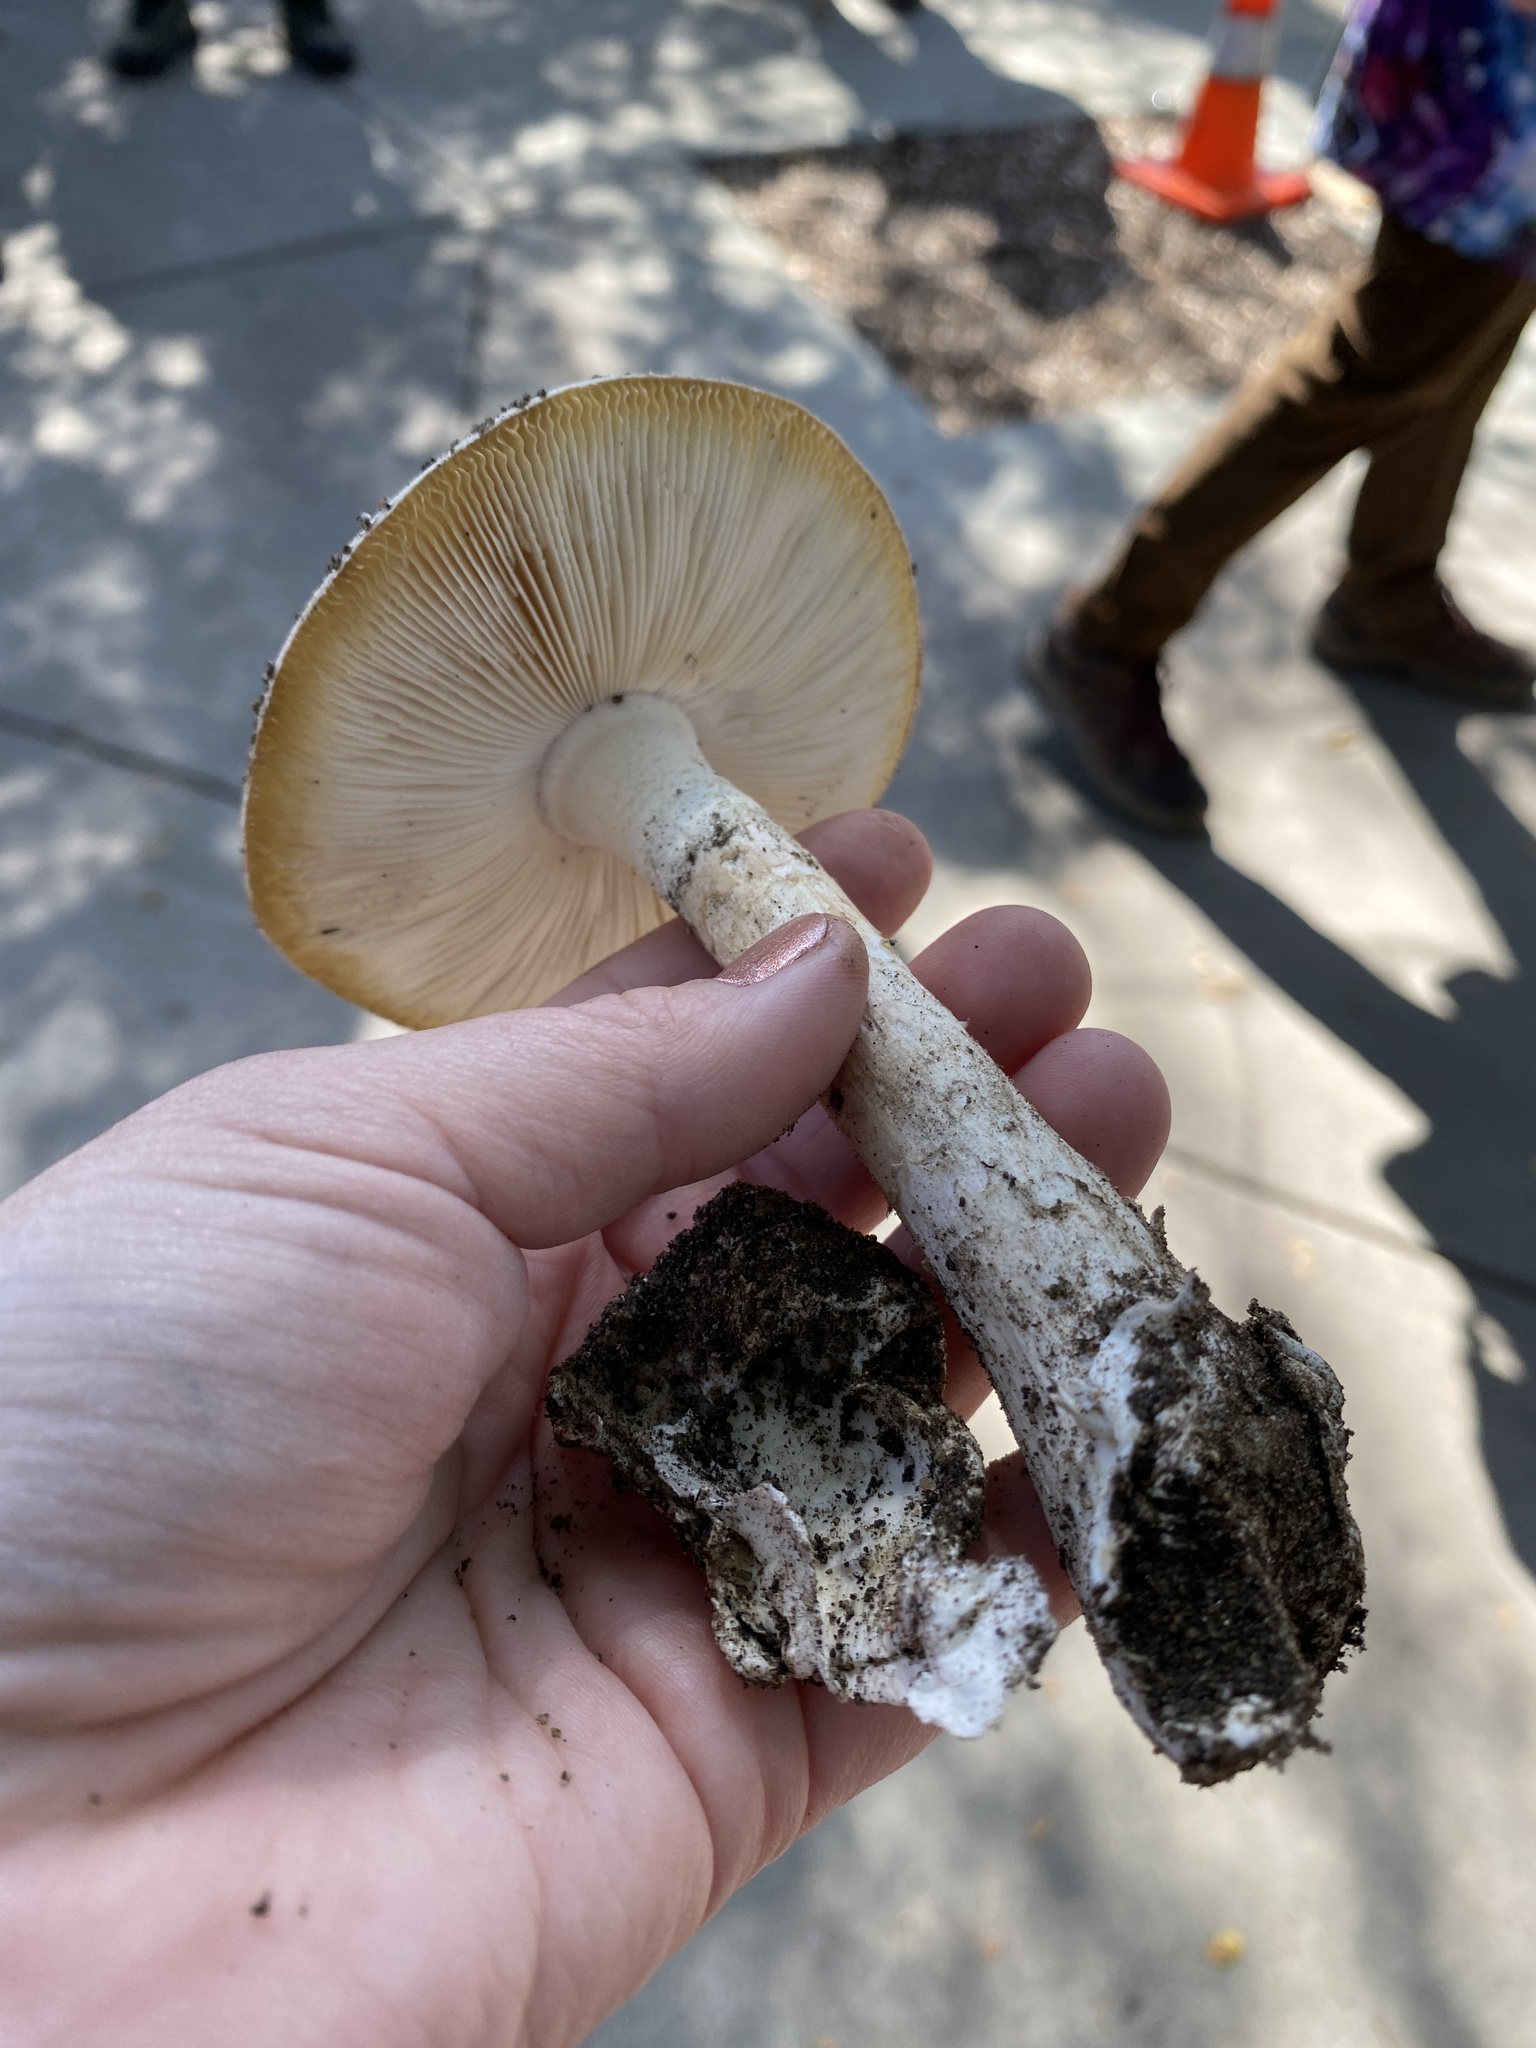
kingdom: Fungi
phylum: Basidiomycota
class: Agaricomycetes
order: Agaricales
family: Amanitaceae
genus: Amanita
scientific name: Amanita ocreata
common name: Western destroying angel
